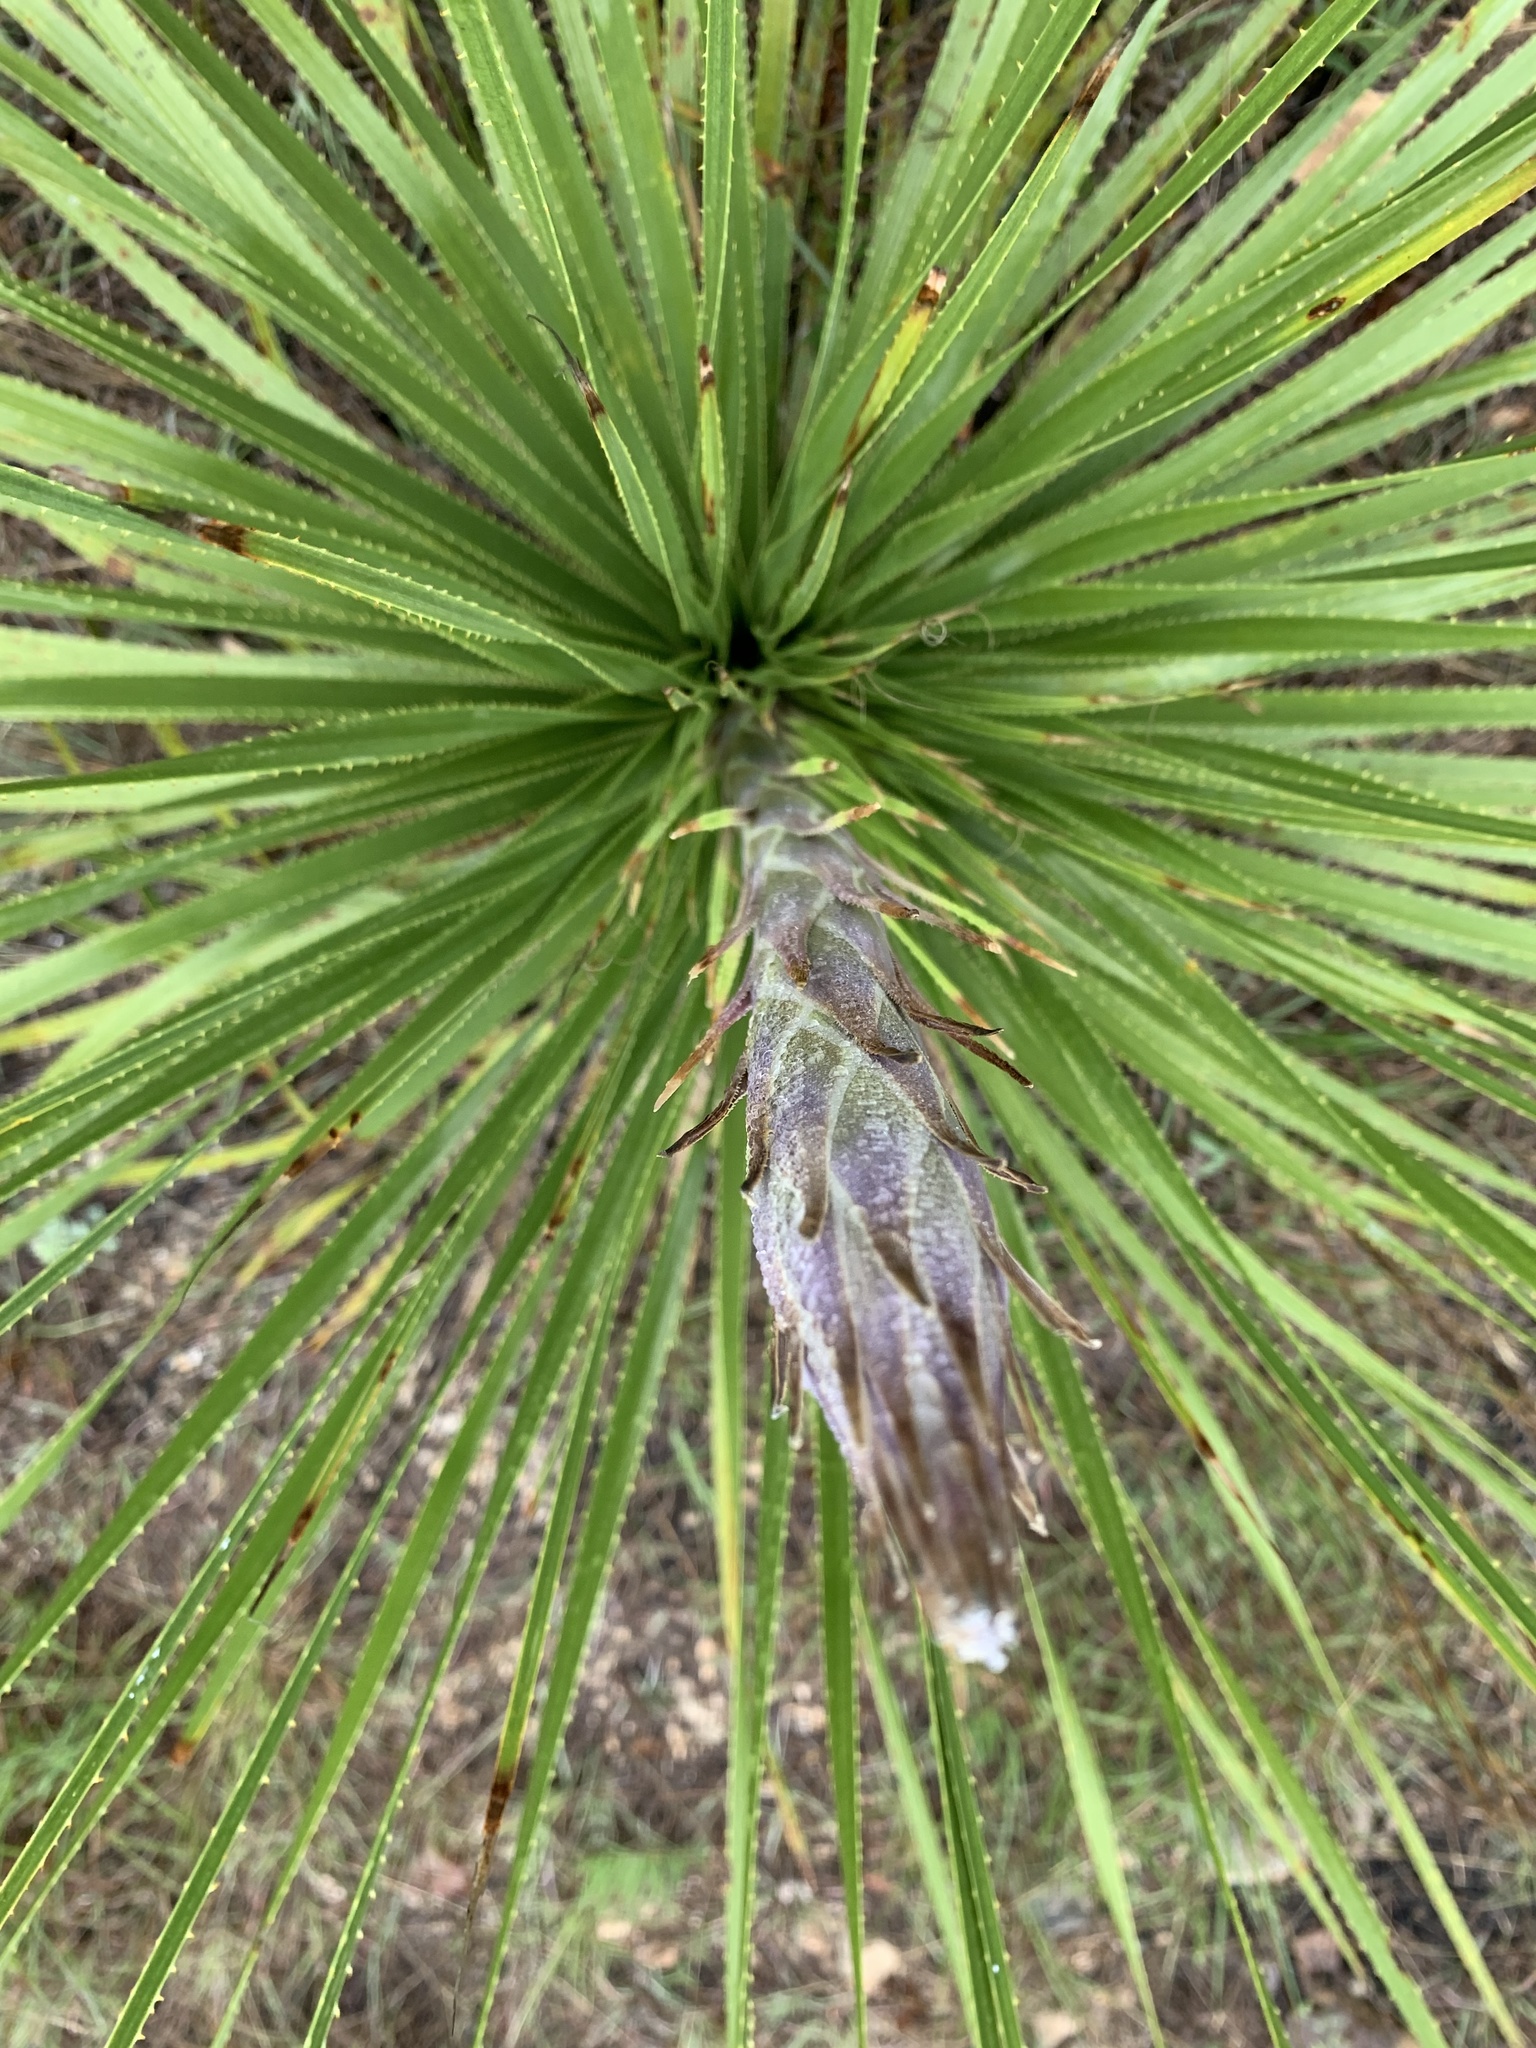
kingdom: Plantae
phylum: Tracheophyta
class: Liliopsida
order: Asparagales
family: Asparagaceae
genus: Dasylirion
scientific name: Dasylirion texanum
